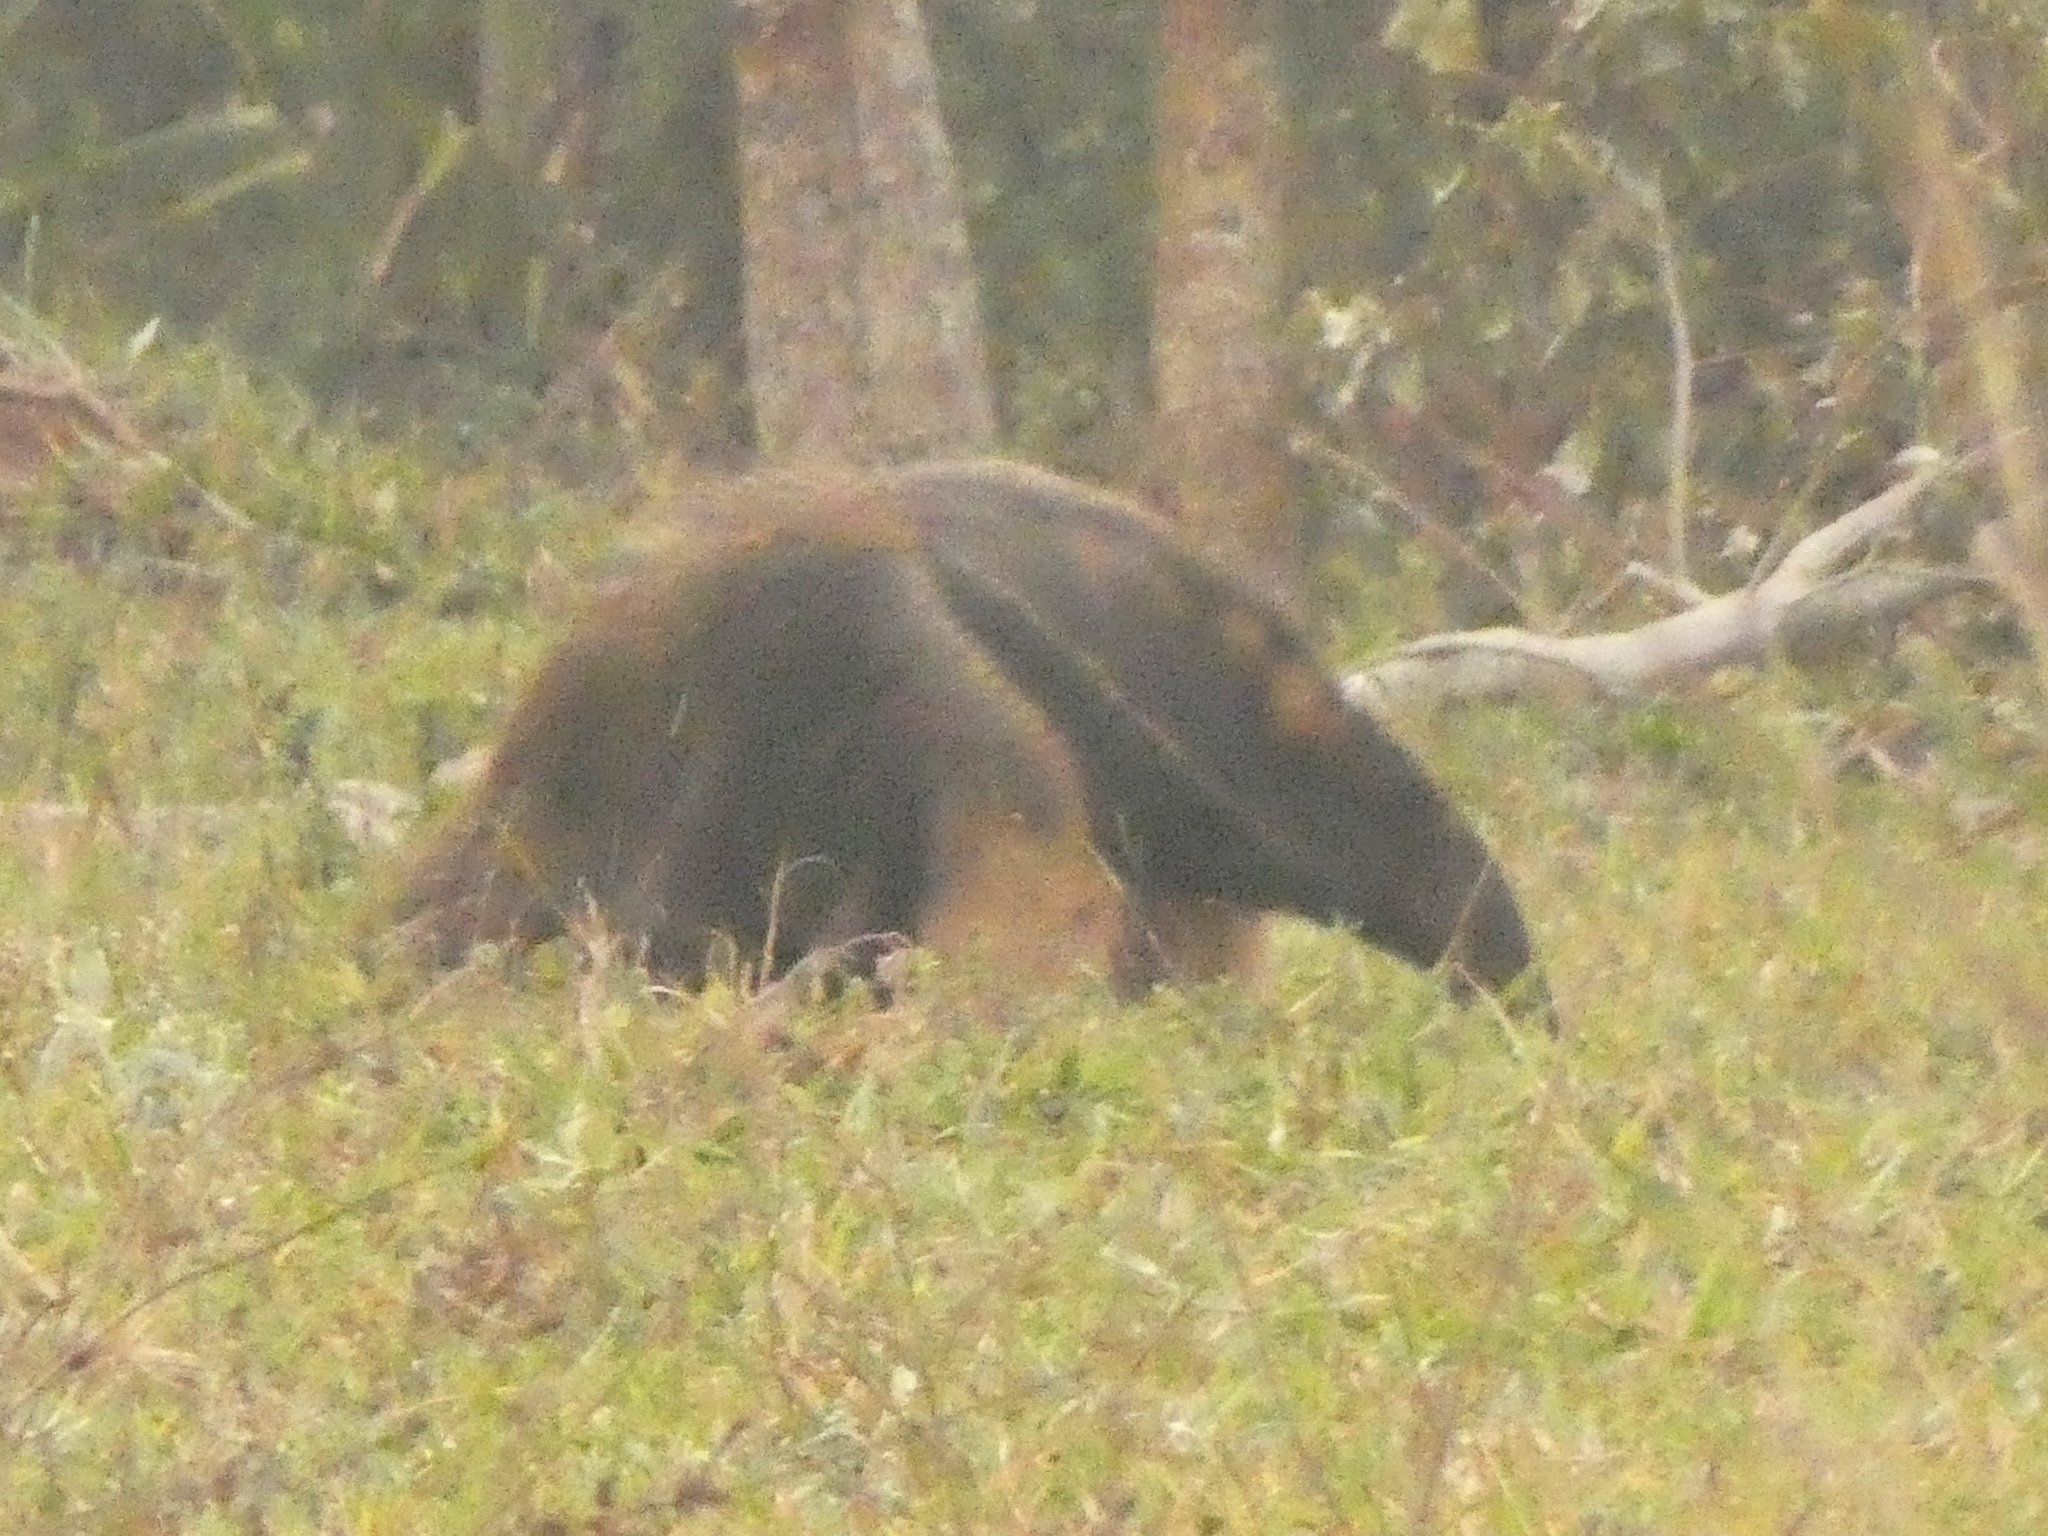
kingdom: Animalia
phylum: Chordata
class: Mammalia
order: Pilosa
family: Myrmecophagidae
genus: Myrmecophaga
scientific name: Myrmecophaga tridactyla
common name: Giant anteater
